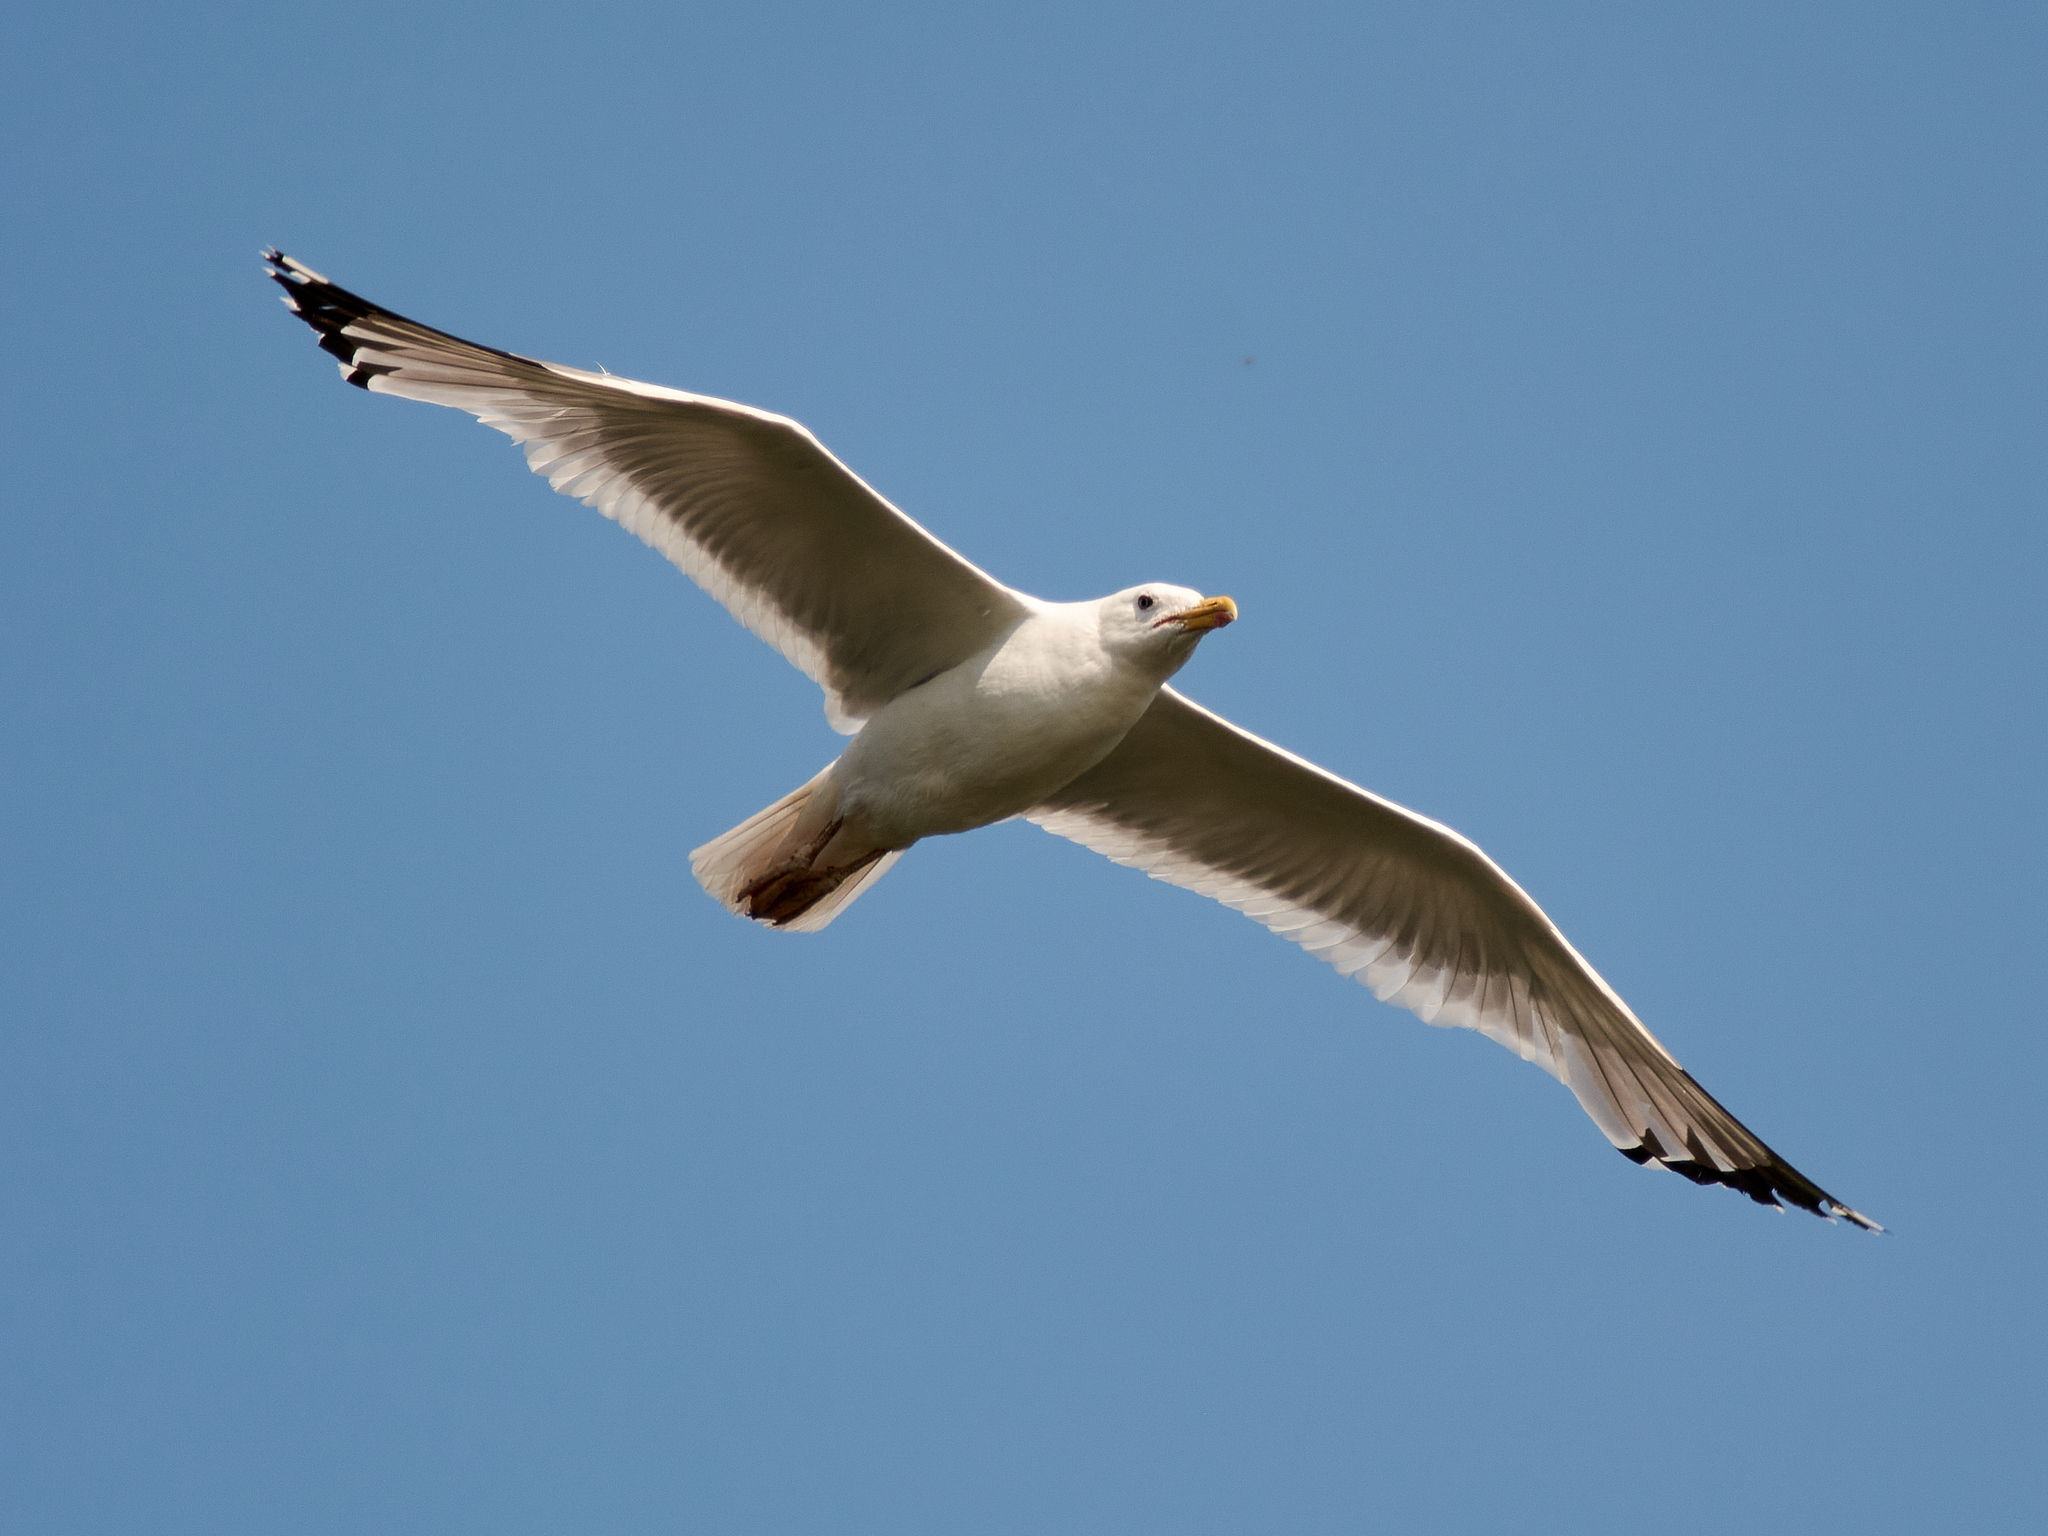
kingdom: Animalia
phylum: Chordata
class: Aves
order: Charadriiformes
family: Laridae
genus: Larus
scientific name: Larus cachinnans
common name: Caspian gull
